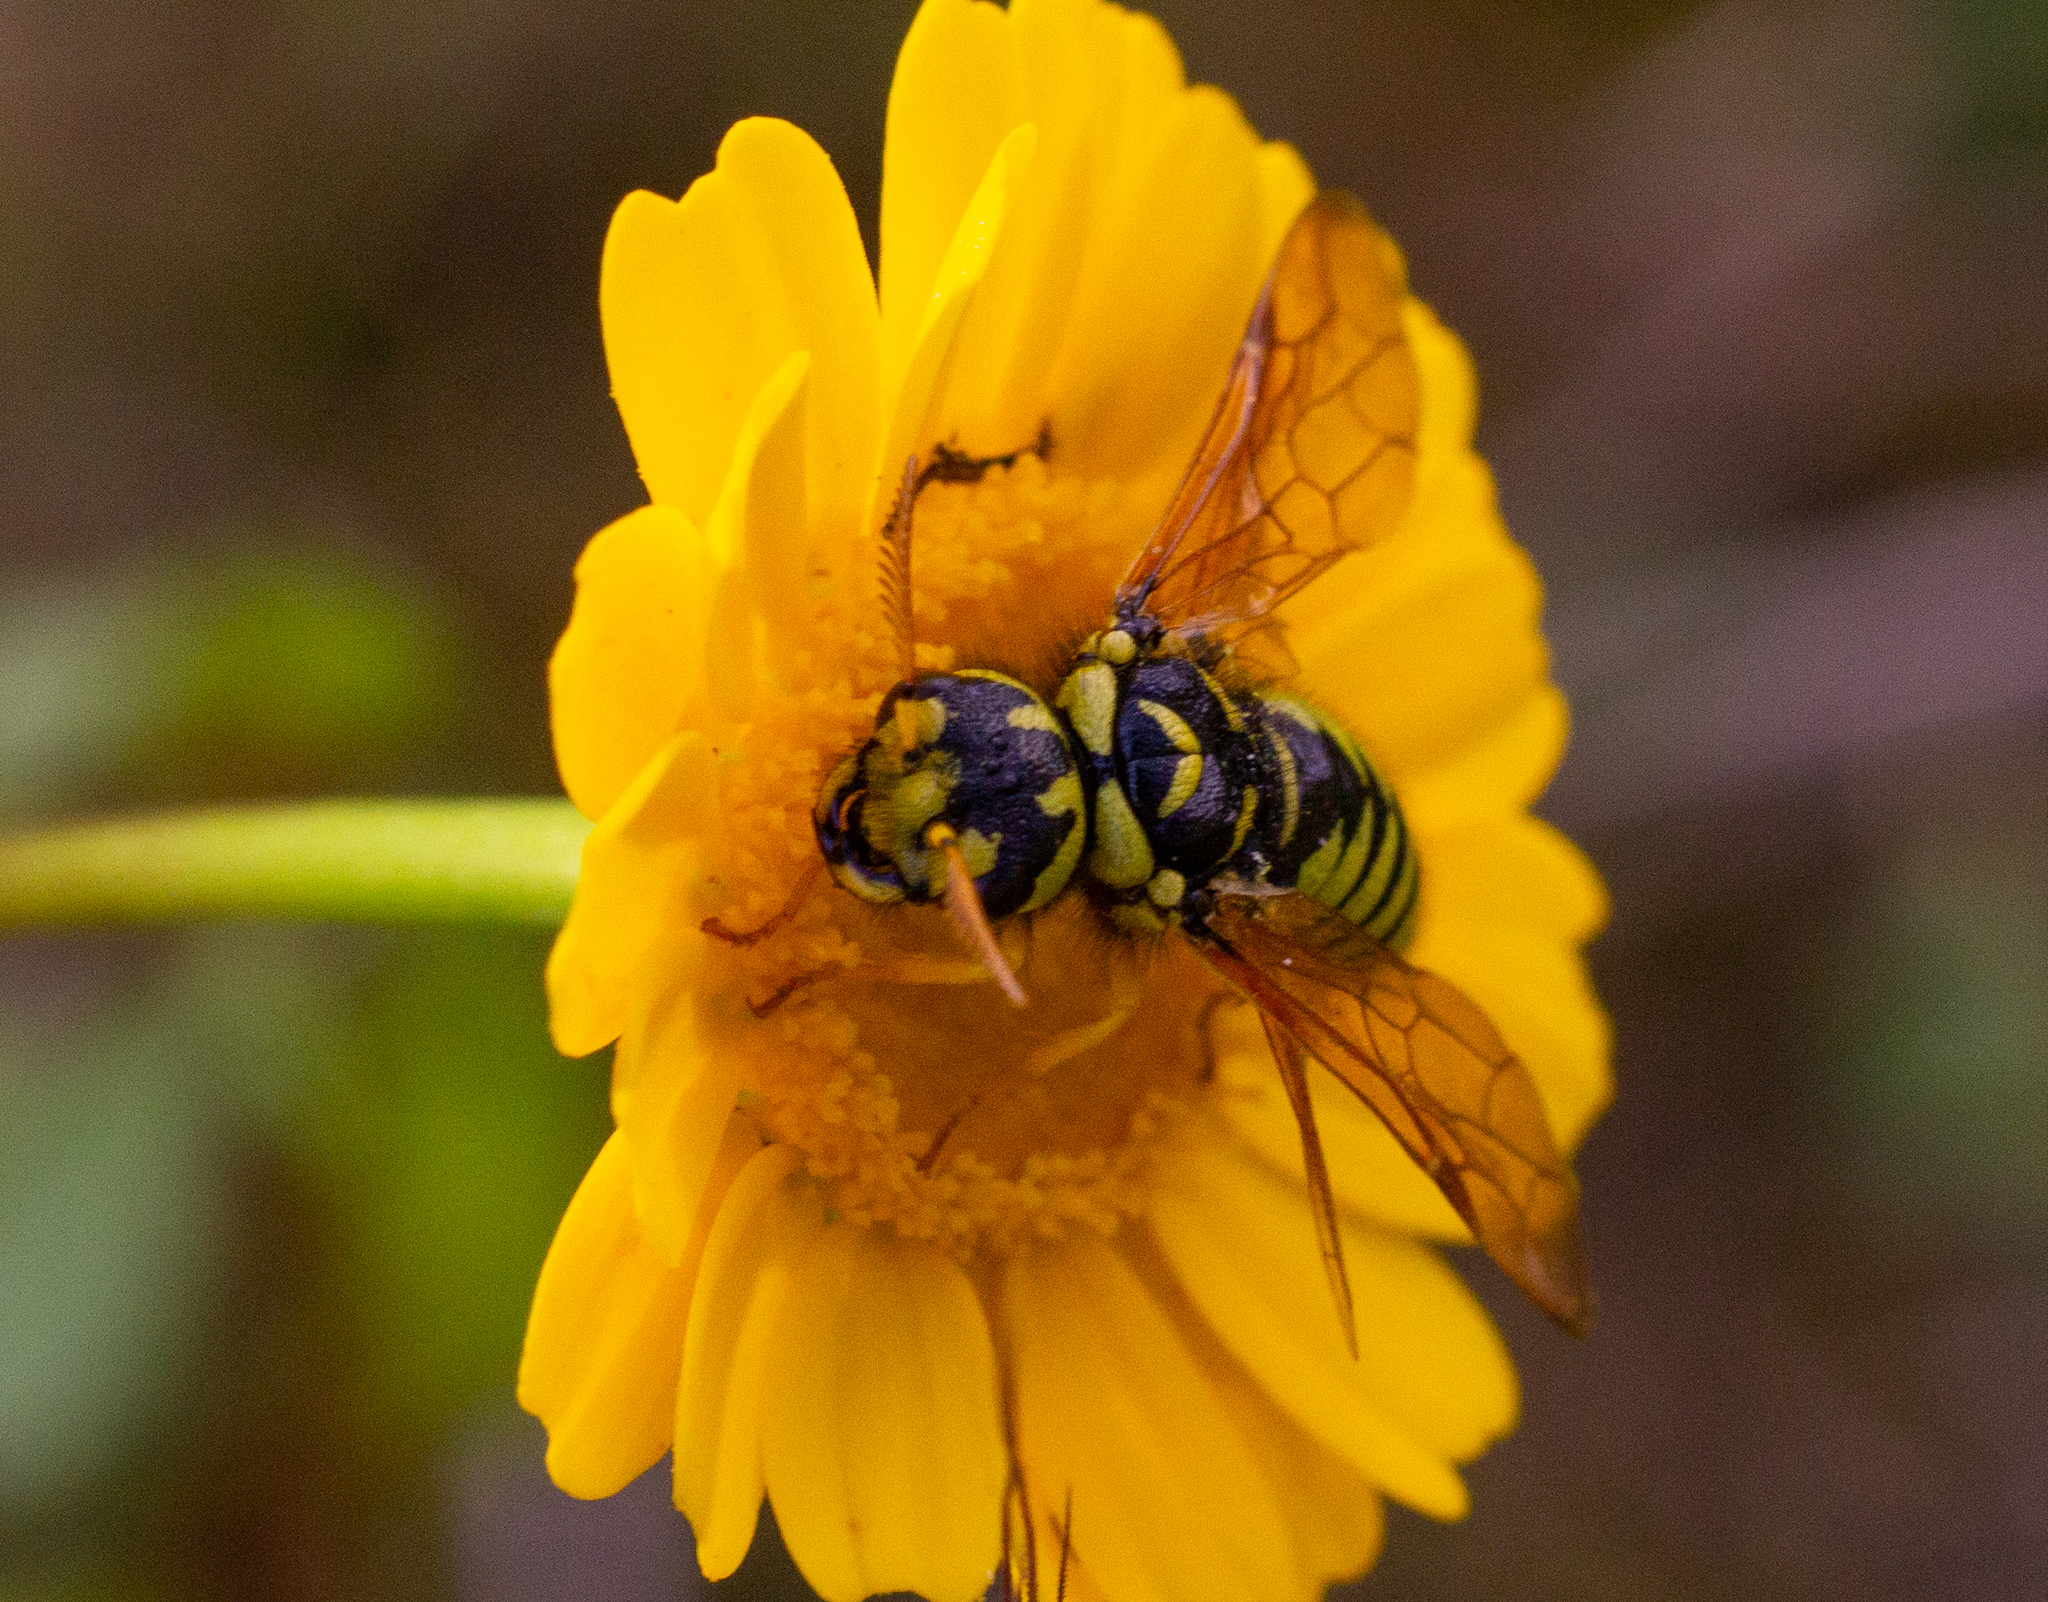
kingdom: Animalia
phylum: Arthropoda
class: Insecta
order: Hymenoptera
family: Megalodontesidae
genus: Megalodontes
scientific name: Megalodontes capitalatus
